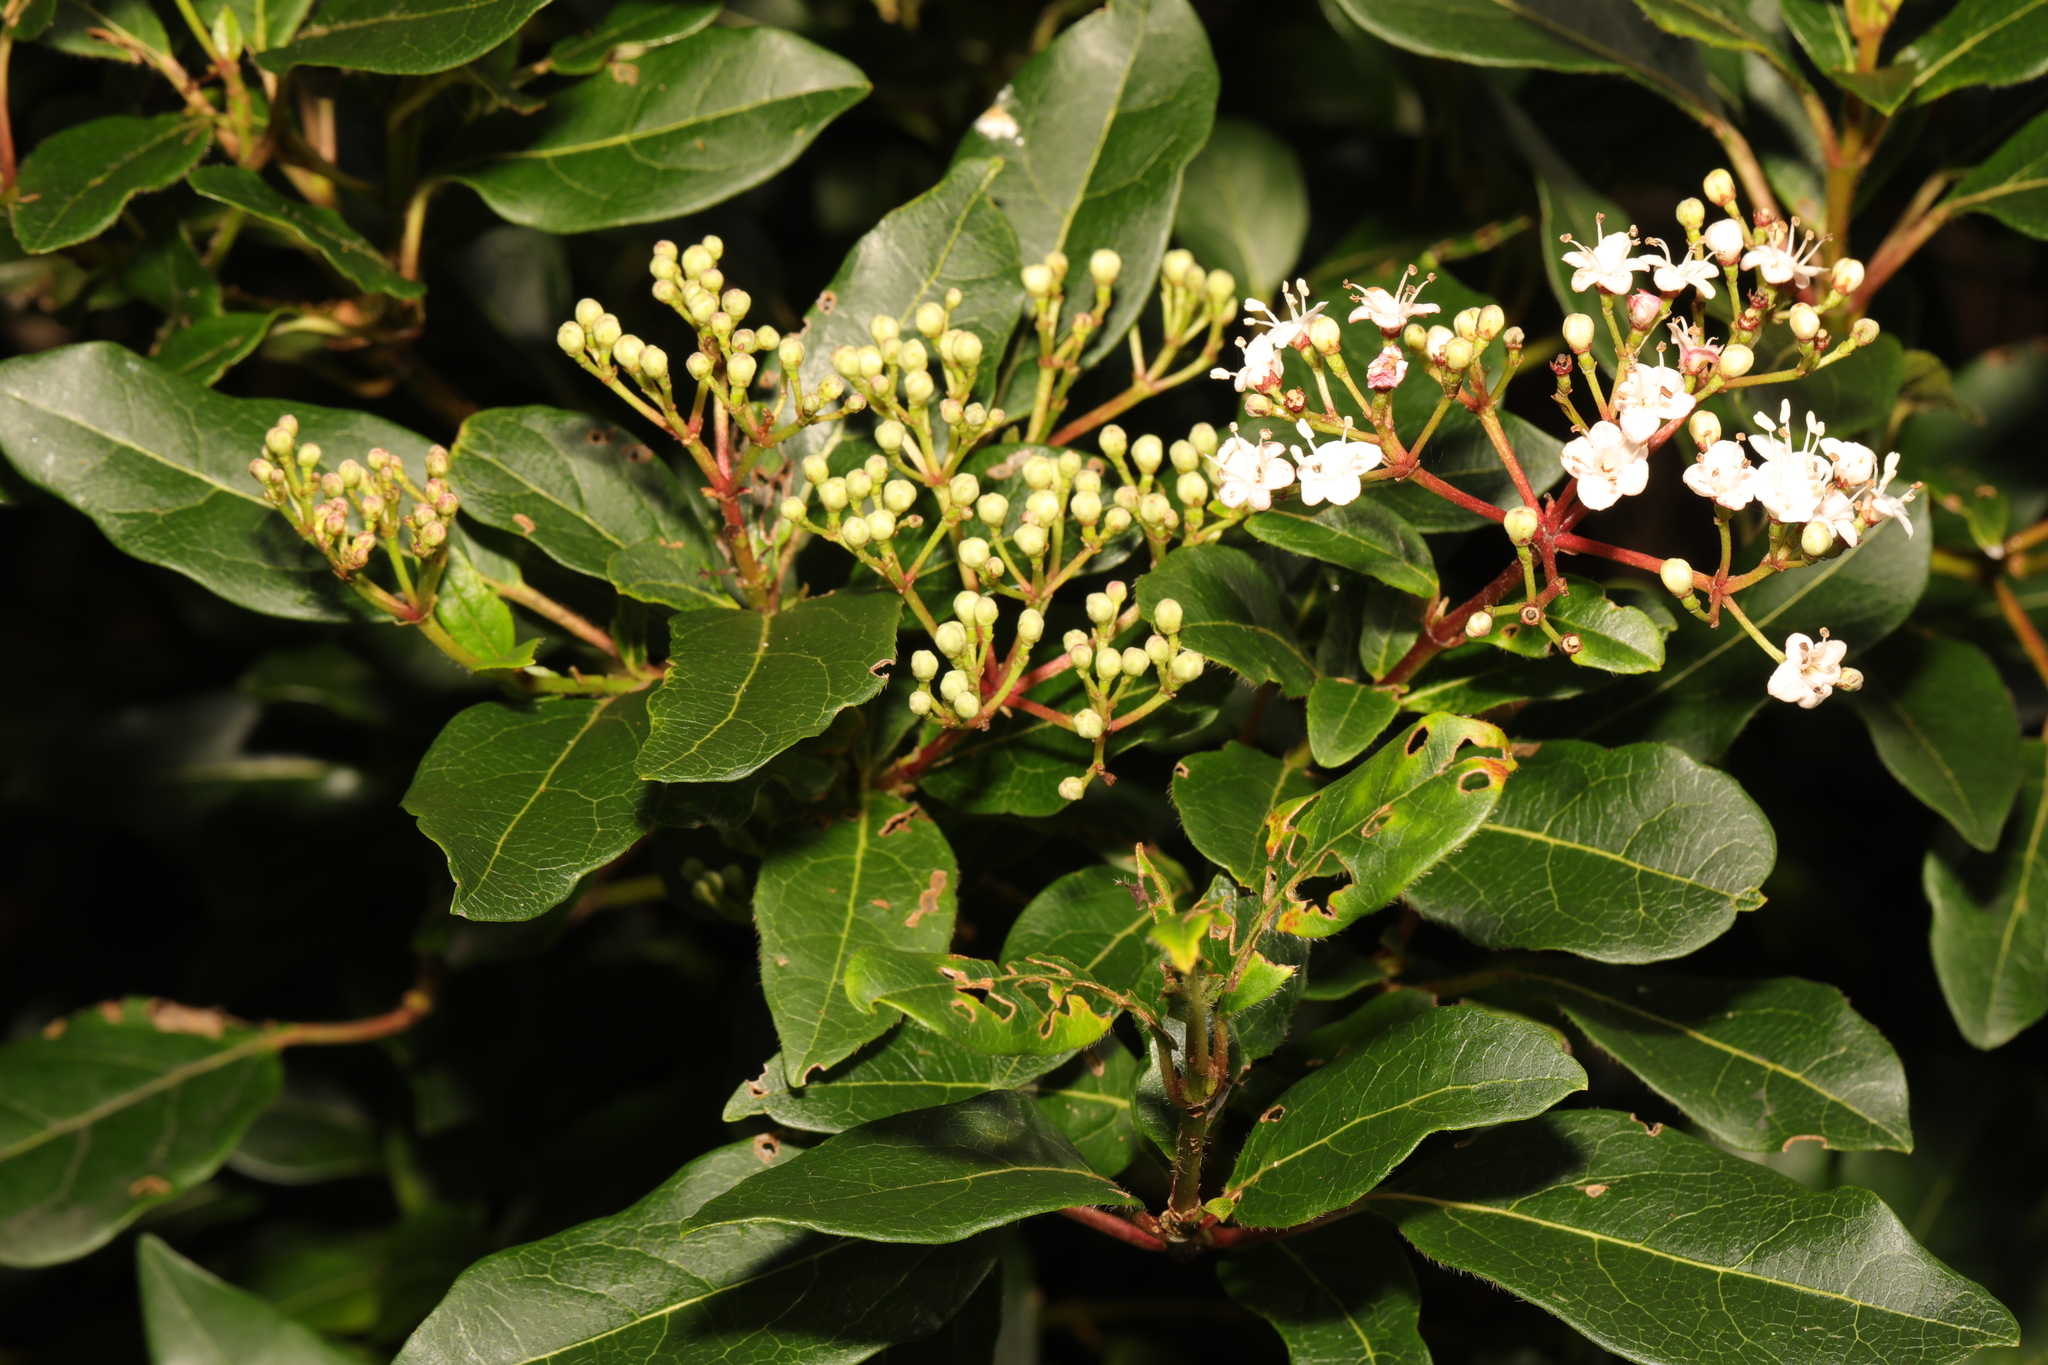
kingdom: Plantae
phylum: Tracheophyta
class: Magnoliopsida
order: Dipsacales
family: Viburnaceae
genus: Viburnum
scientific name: Viburnum tinus
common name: Laurustinus
